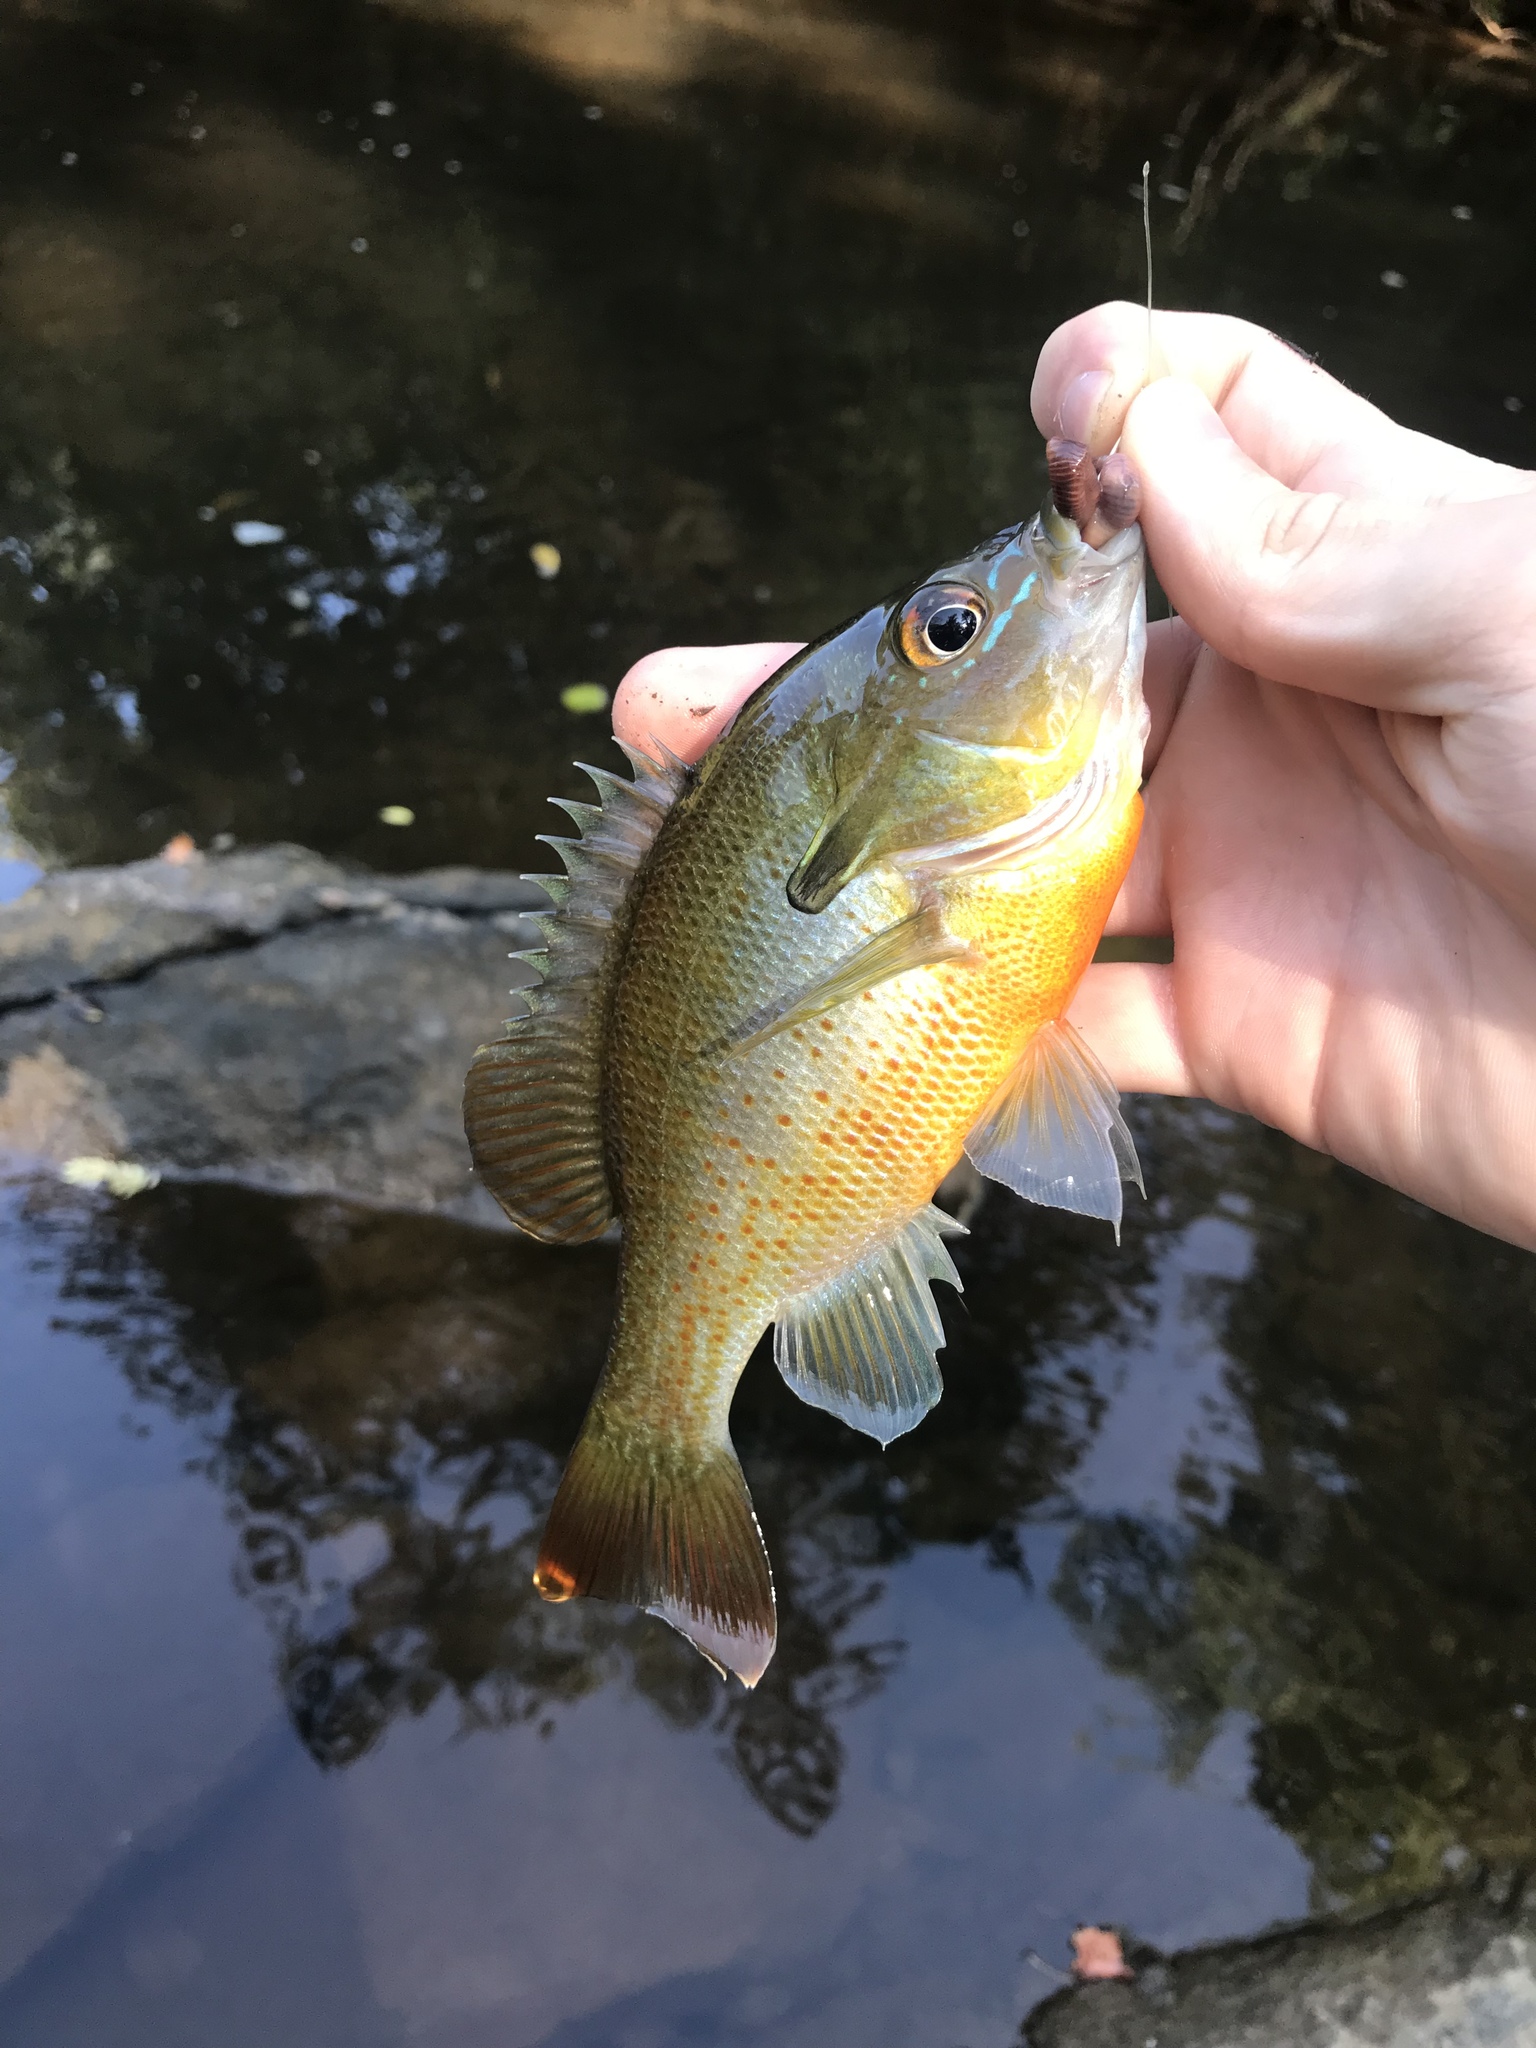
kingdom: Animalia
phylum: Chordata
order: Perciformes
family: Centrarchidae
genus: Lepomis
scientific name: Lepomis auritus
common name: Redbreast sunfish
